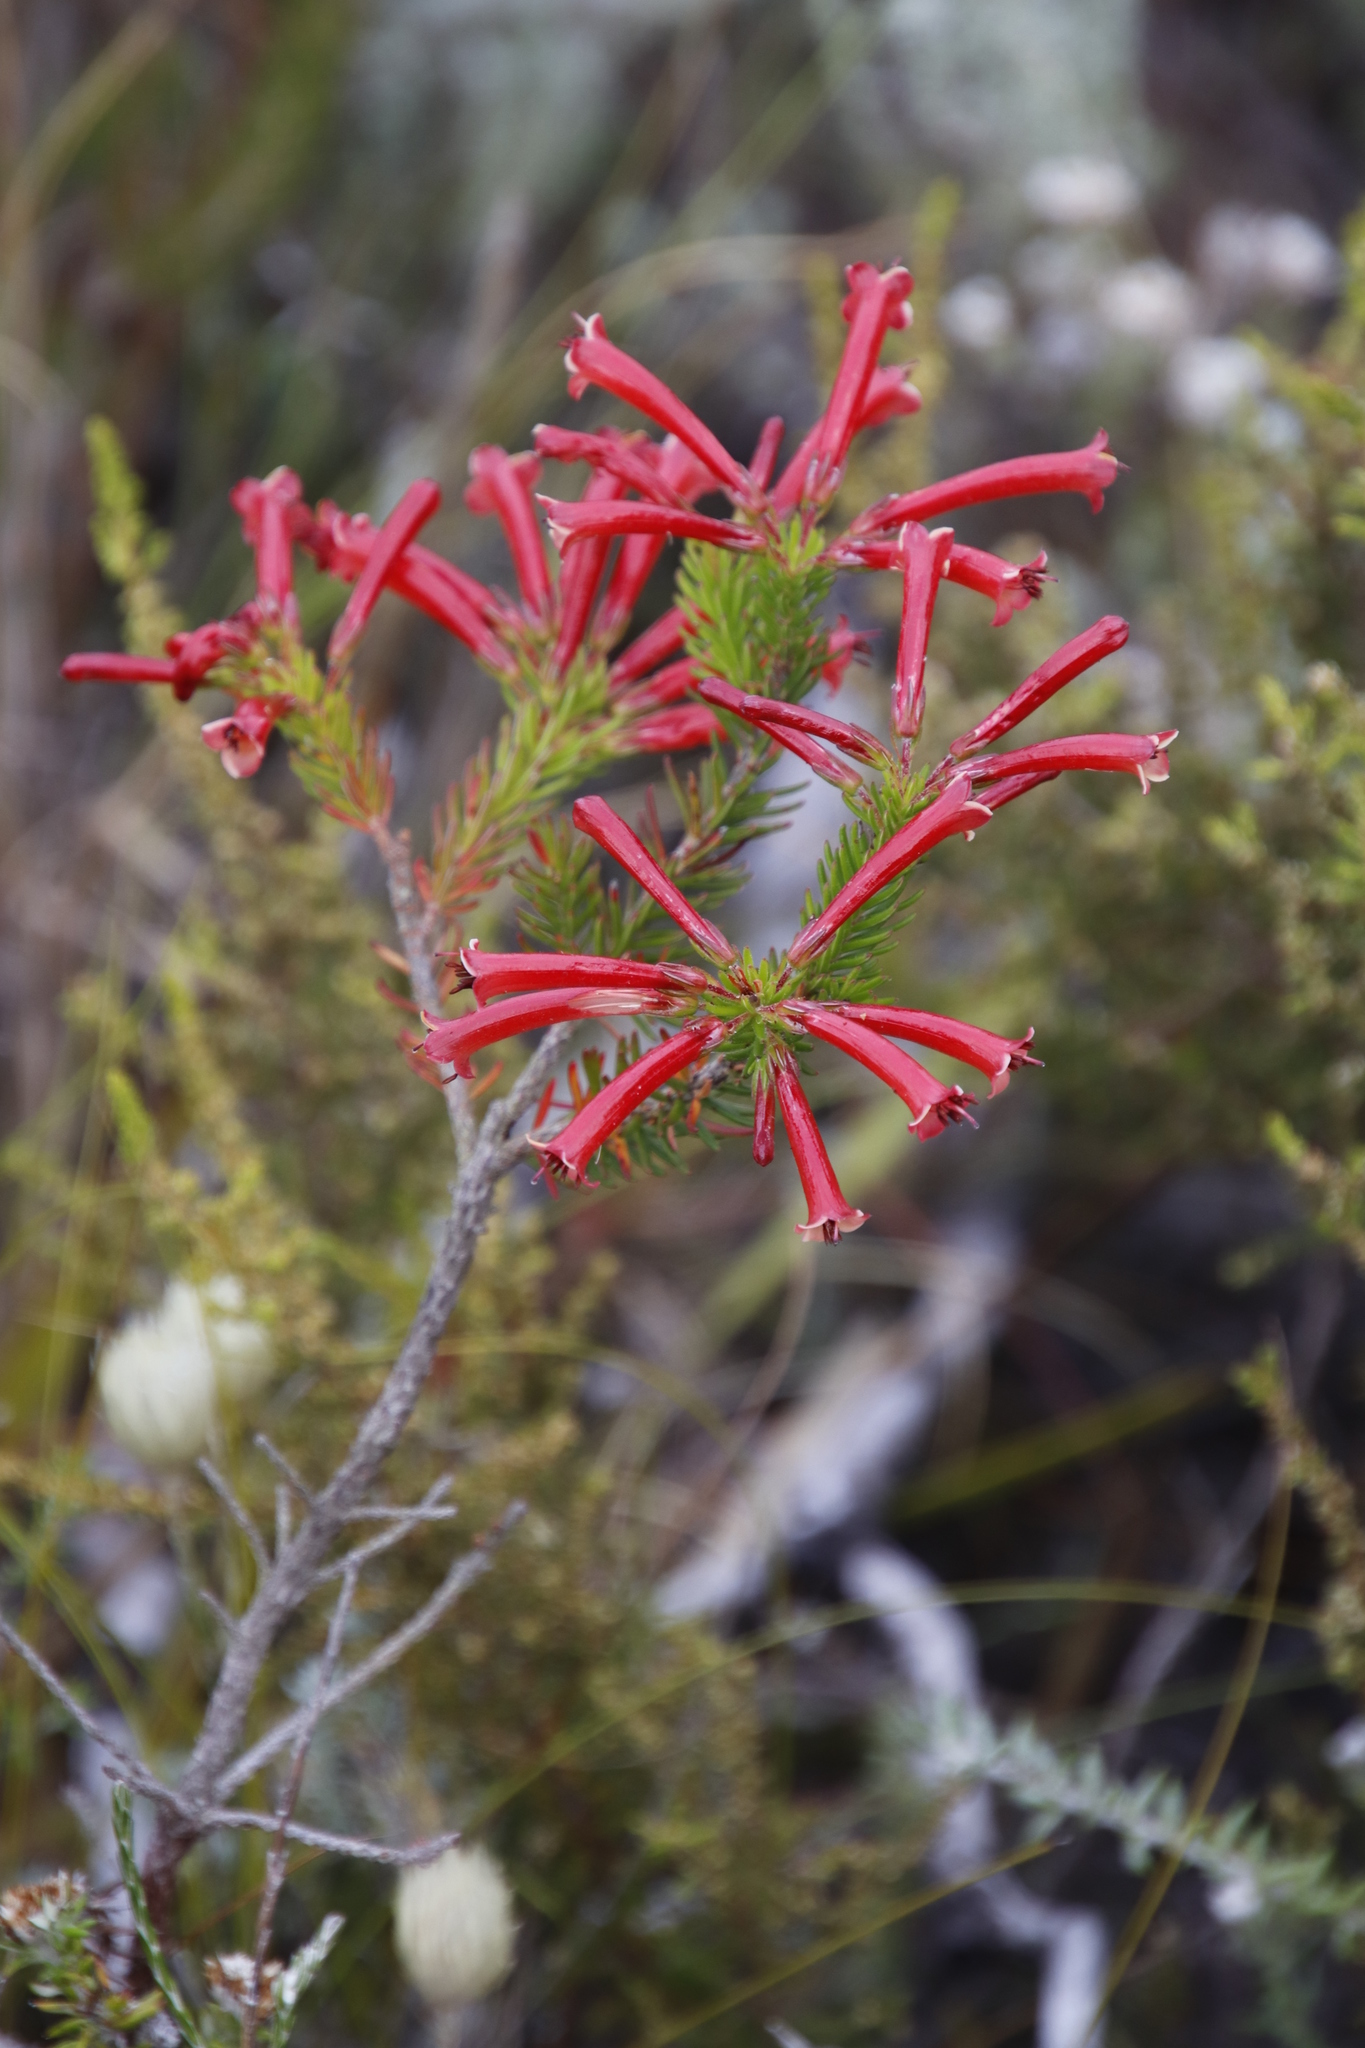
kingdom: Plantae
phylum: Tracheophyta
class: Magnoliopsida
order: Ericales
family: Ericaceae
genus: Erica
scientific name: Erica nevillei
